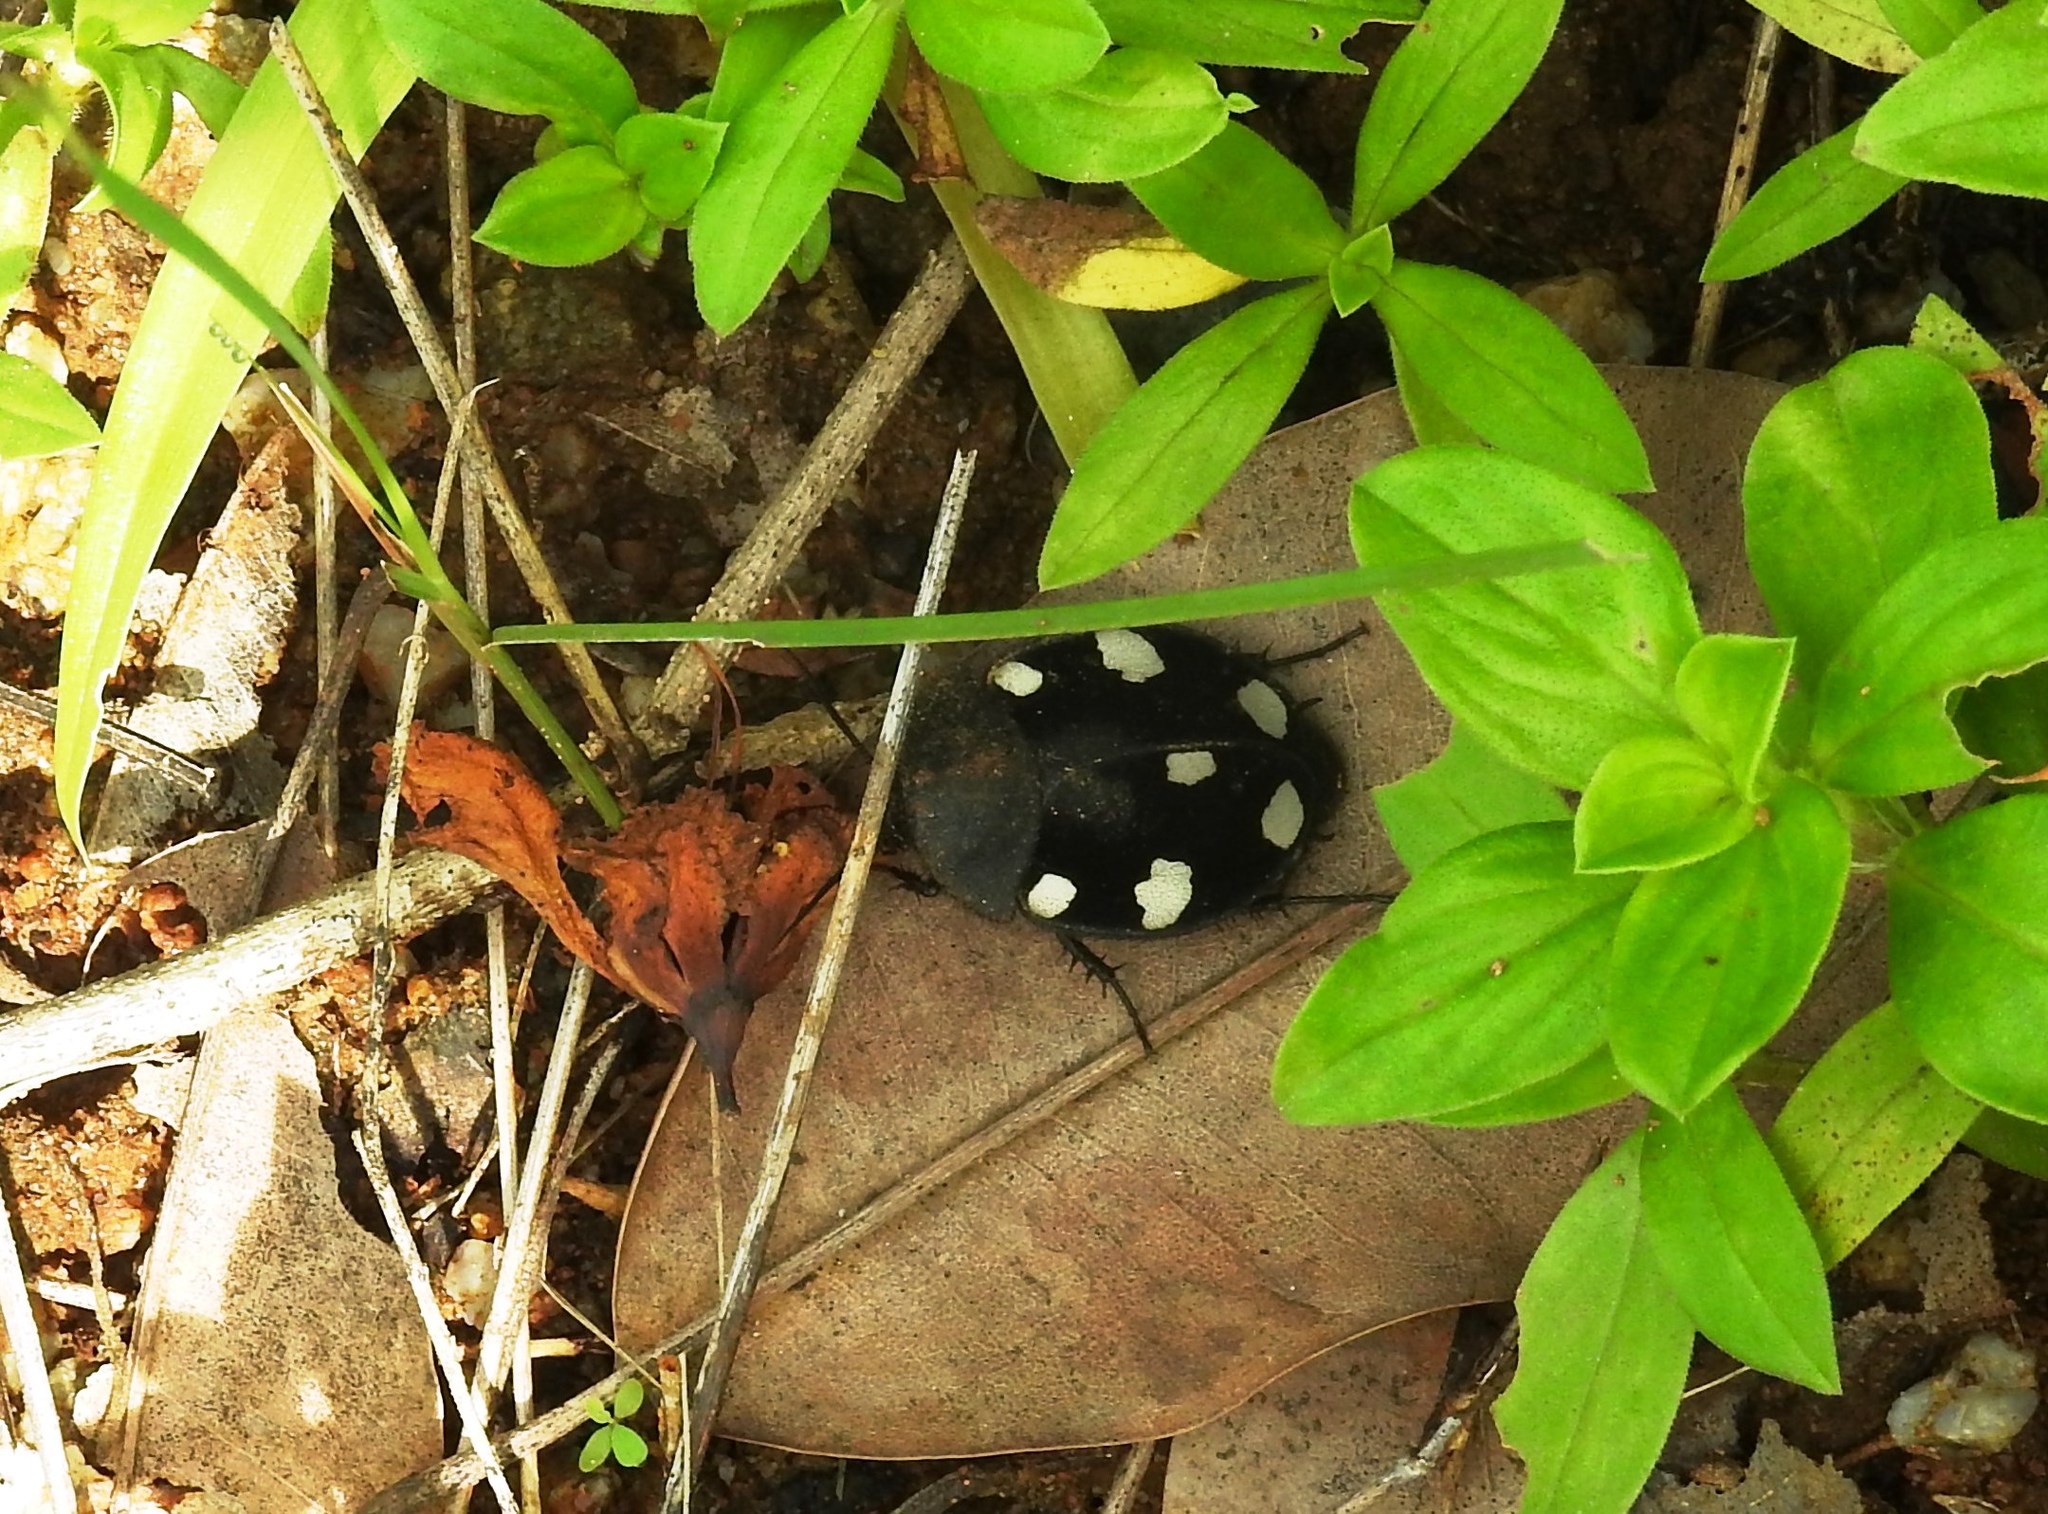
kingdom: Animalia
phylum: Arthropoda
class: Insecta
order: Blattodea
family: Corydiidae
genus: Therea
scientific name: Therea petiveriana
